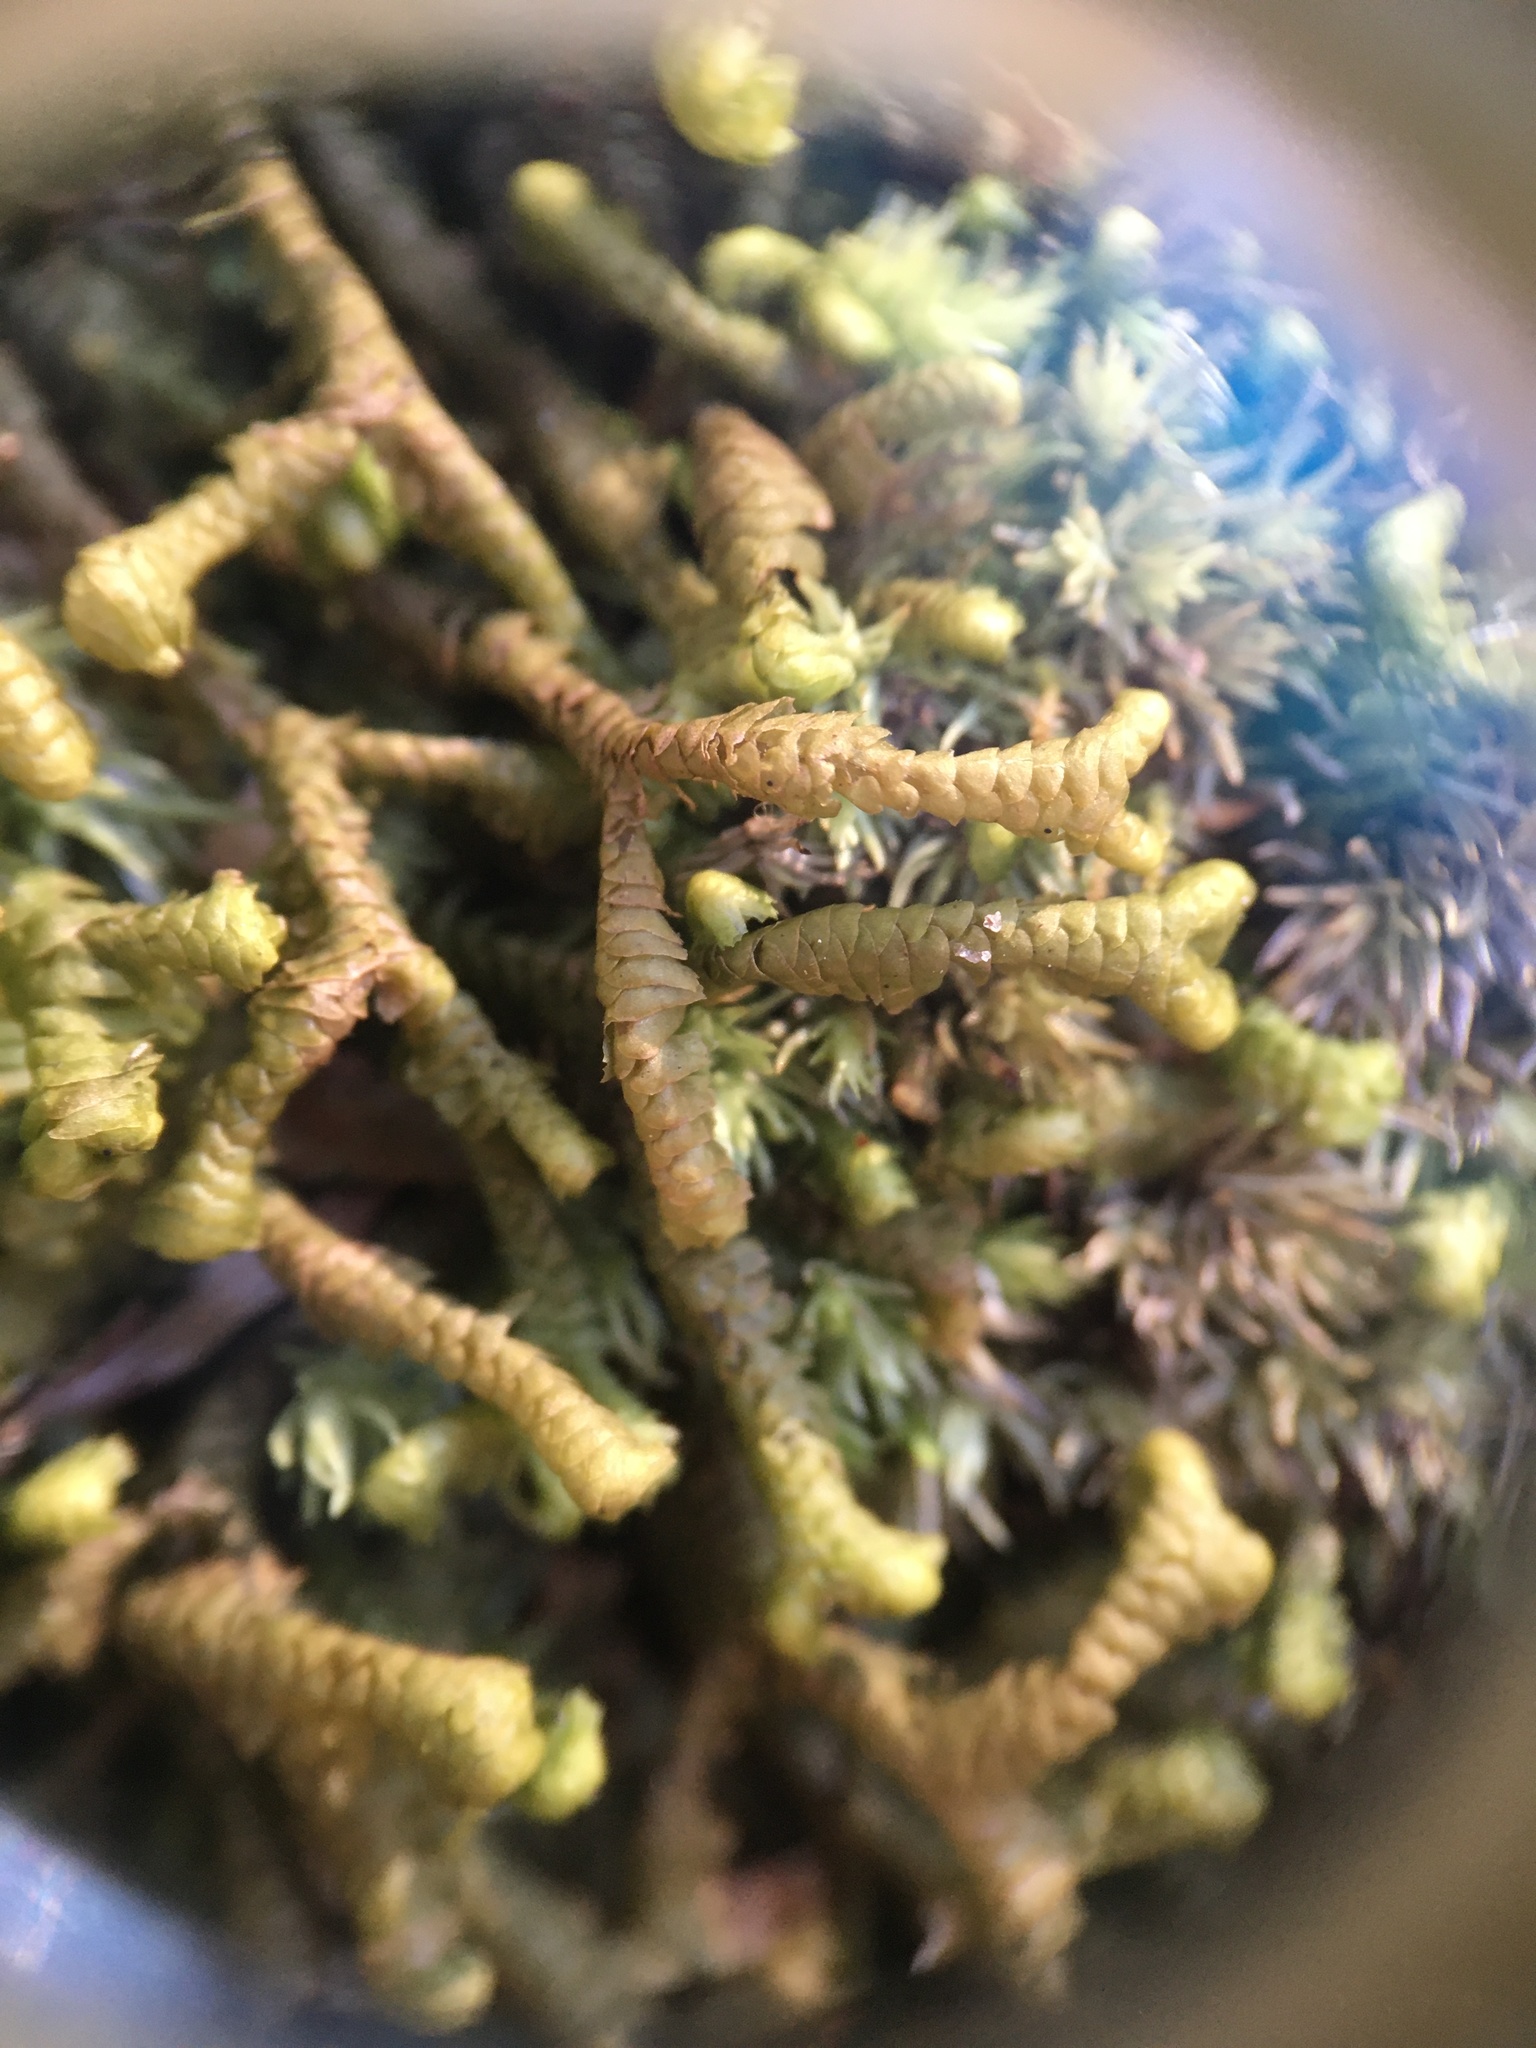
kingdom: Plantae
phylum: Marchantiophyta
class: Jungermanniopsida
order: Jungermanniales
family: Lepidoziaceae
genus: Bazzania
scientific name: Bazzania trilobata
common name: Three-lobed whipwort
